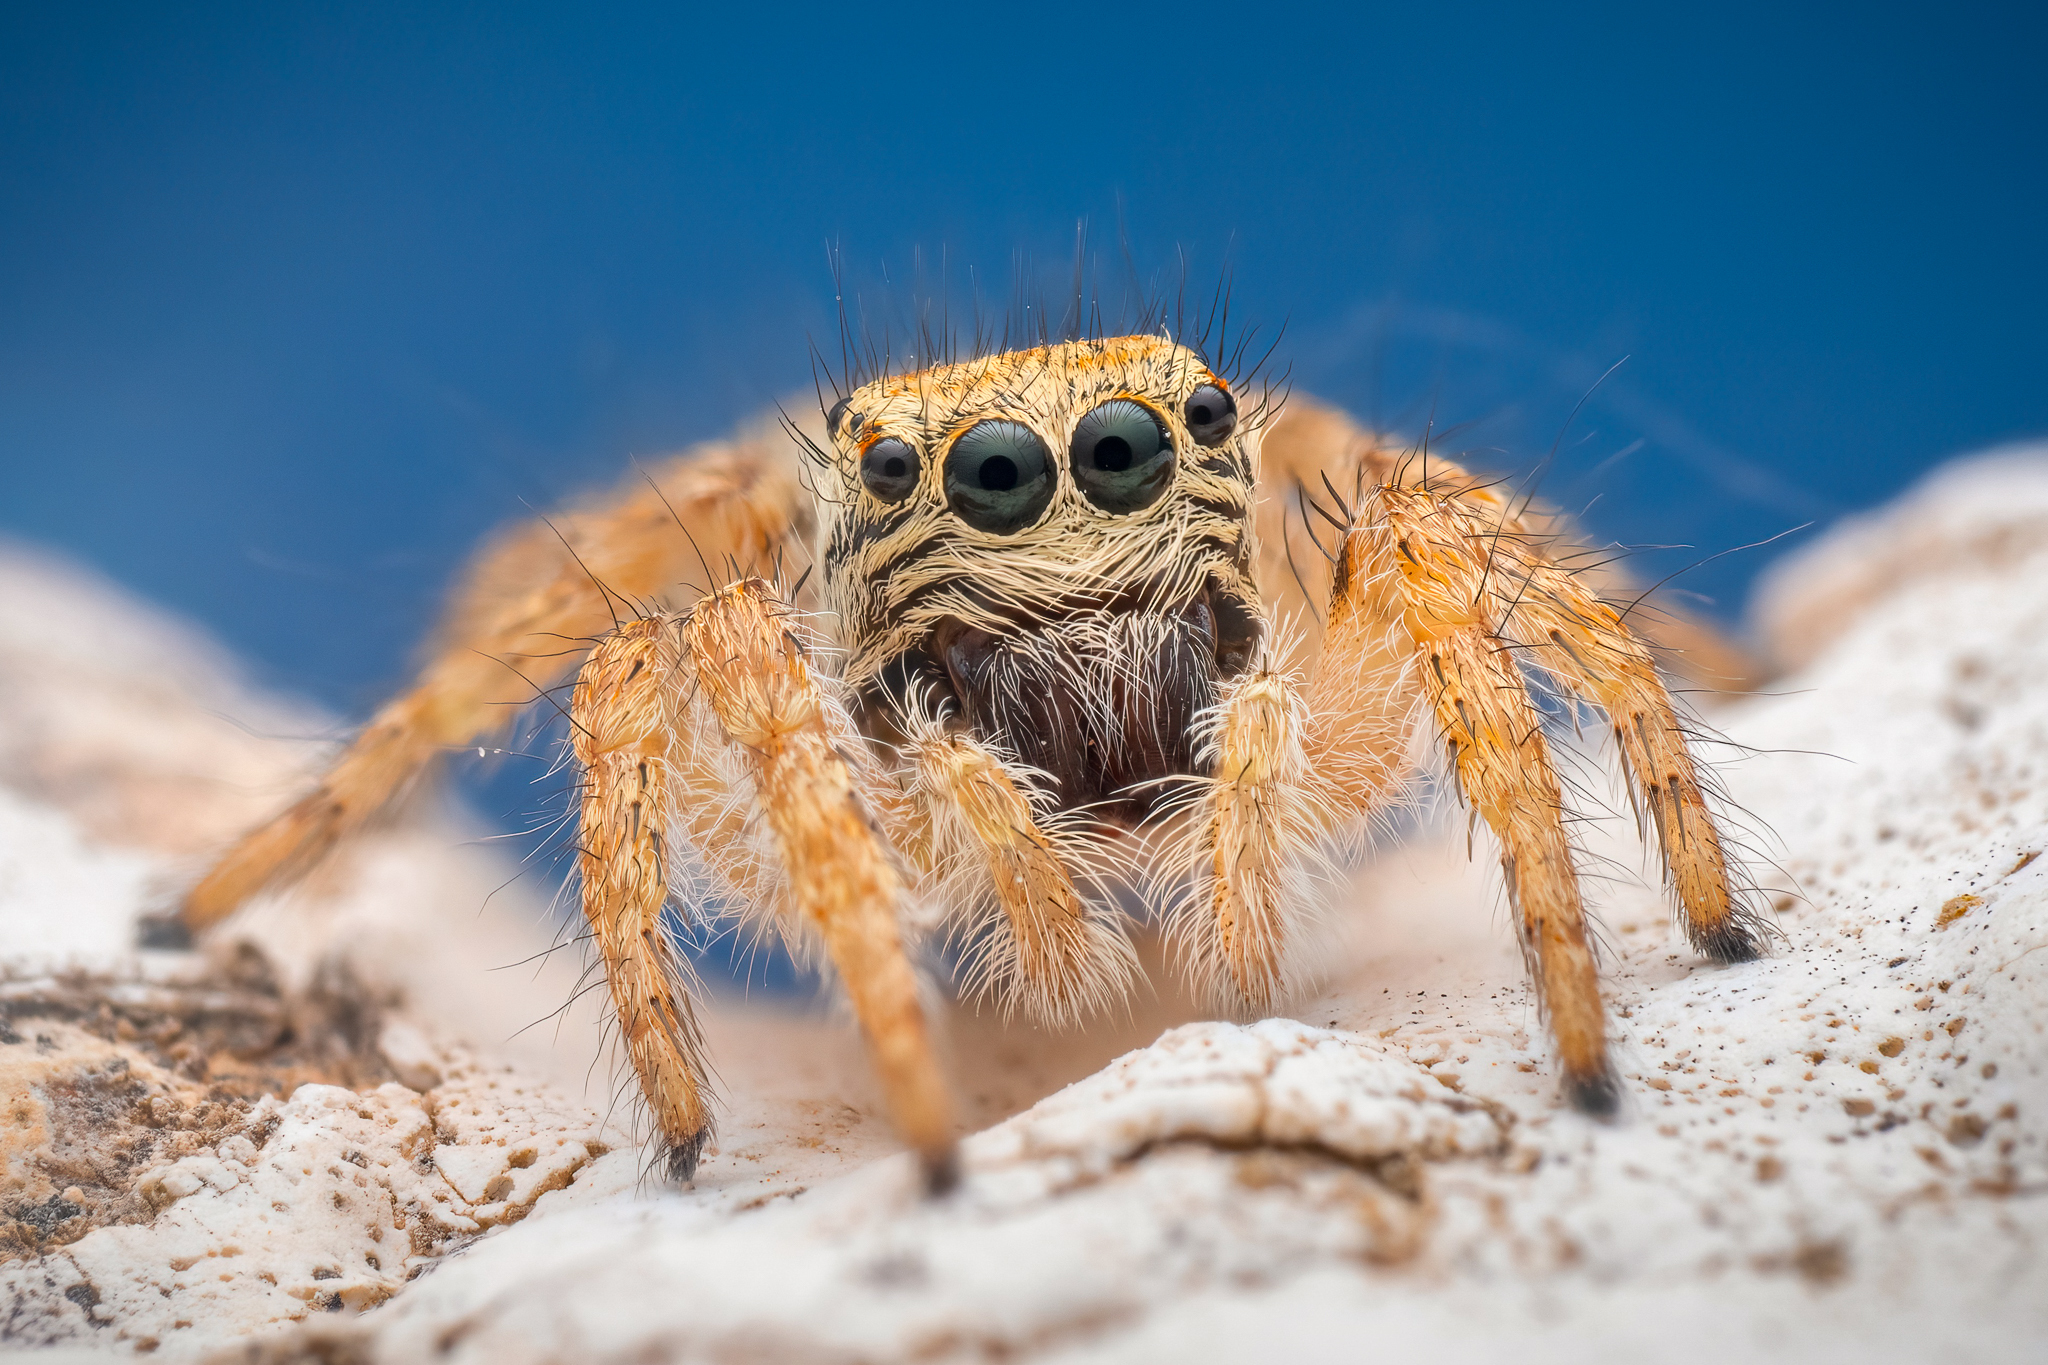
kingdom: Animalia
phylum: Arthropoda
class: Arachnida
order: Araneae
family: Salticidae
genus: Philaeus
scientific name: Philaeus chrysops
